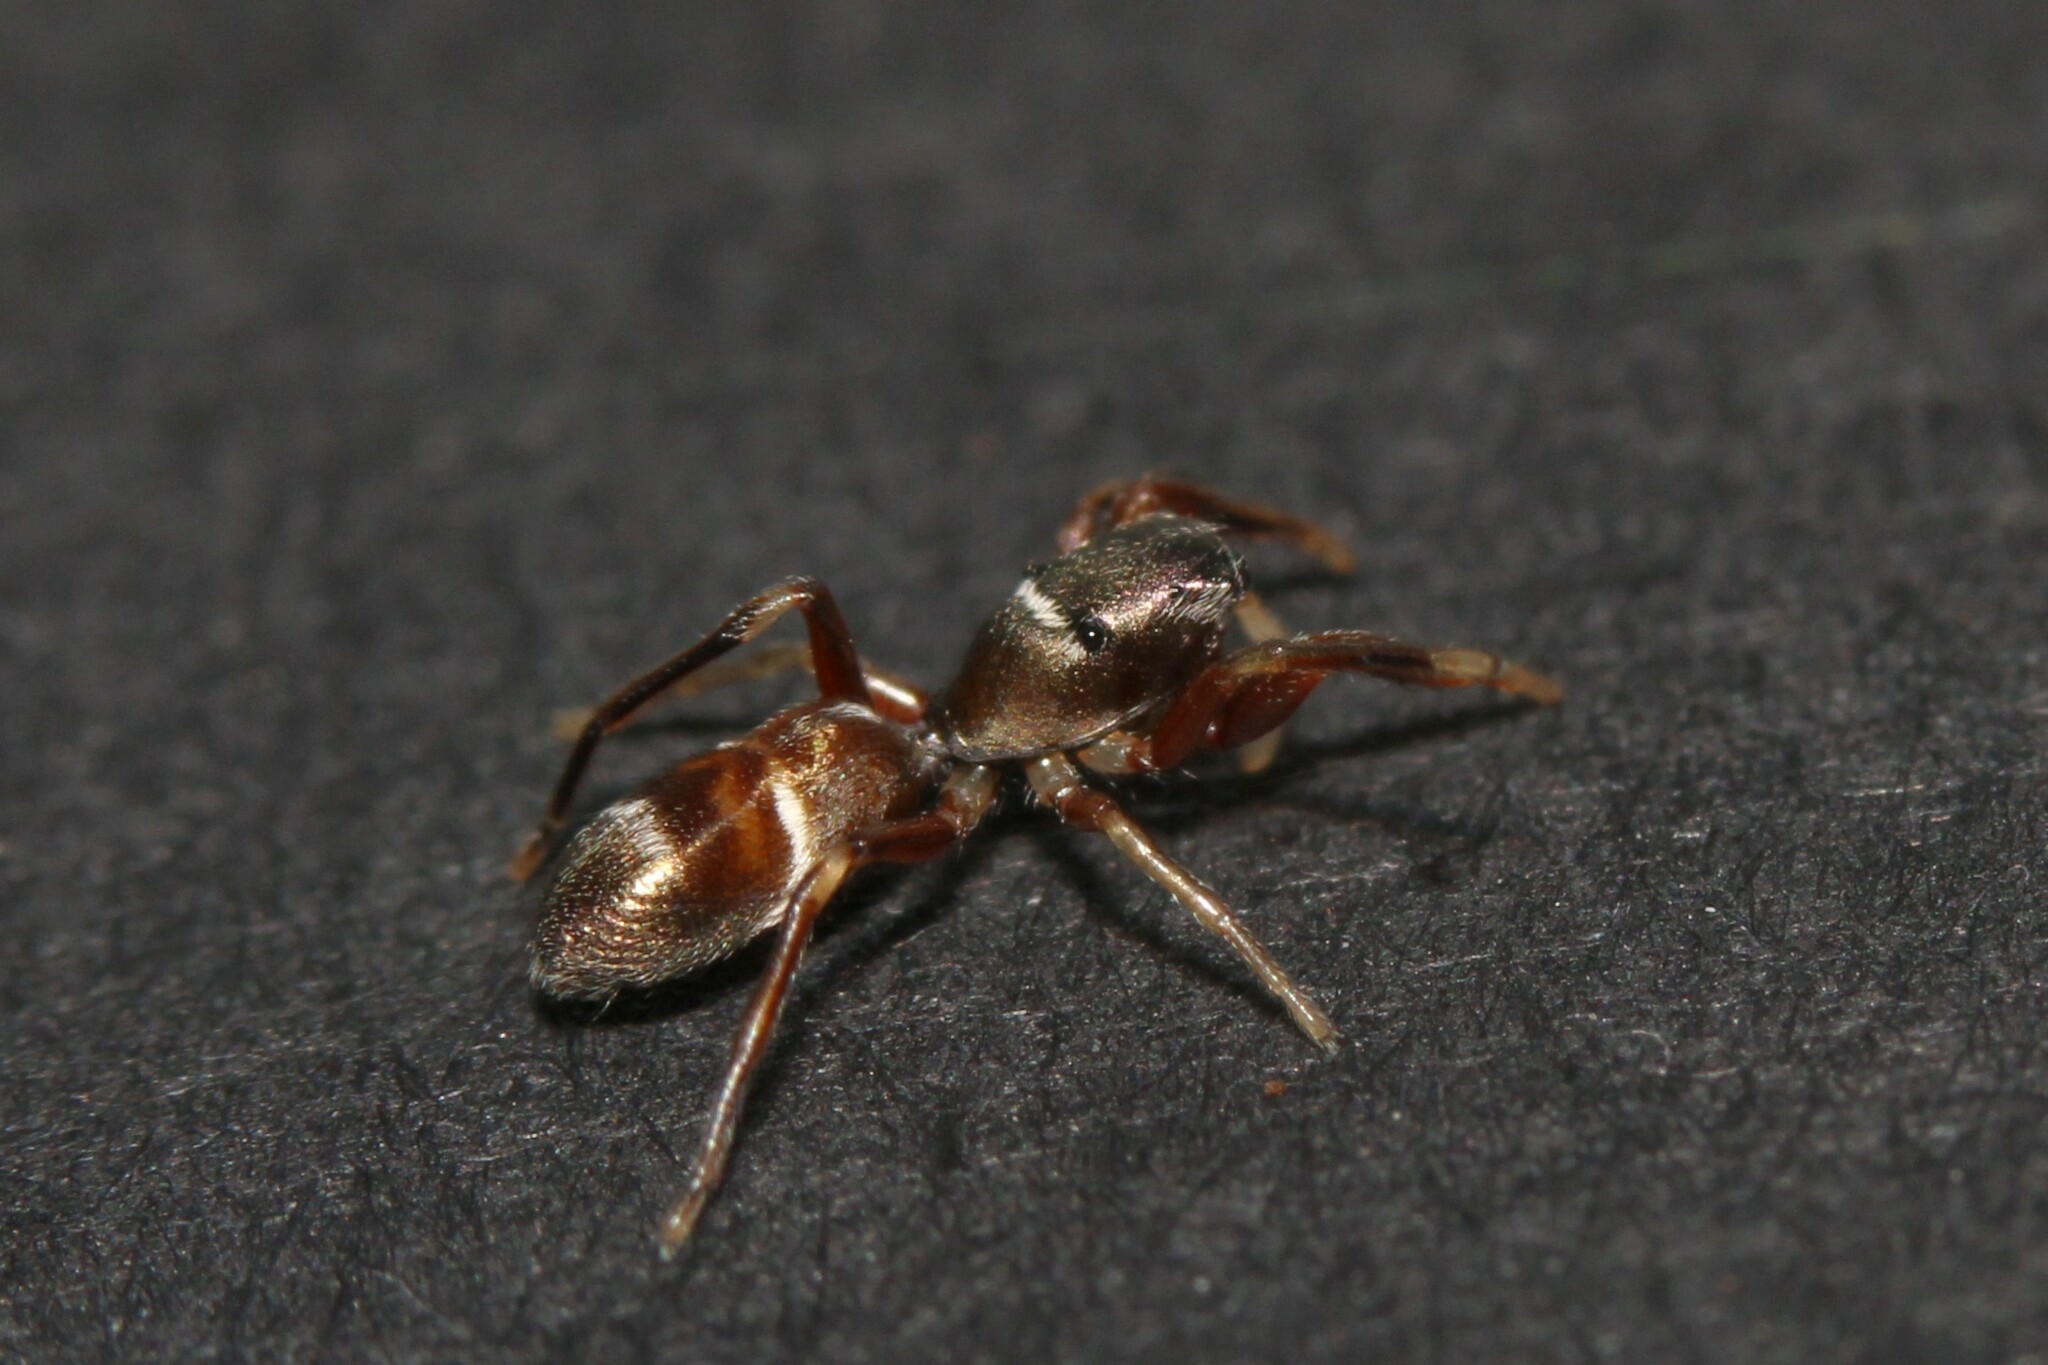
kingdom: Animalia
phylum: Arthropoda
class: Arachnida
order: Araneae
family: Salticidae
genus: Synageles
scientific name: Synageles venator
